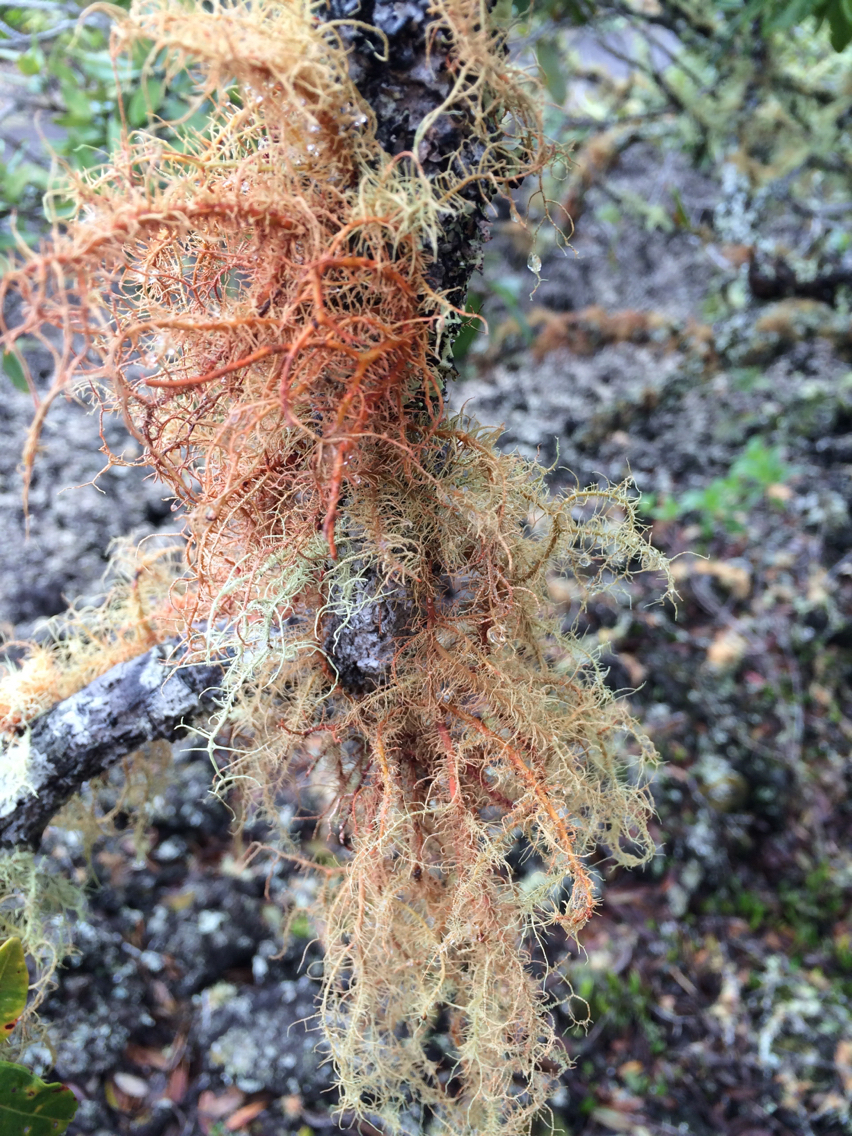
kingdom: Fungi
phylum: Ascomycota
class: Lecanoromycetes
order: Lecanorales
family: Parmeliaceae
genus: Usnea
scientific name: Usnea rubicunda
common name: Red beard lichen
